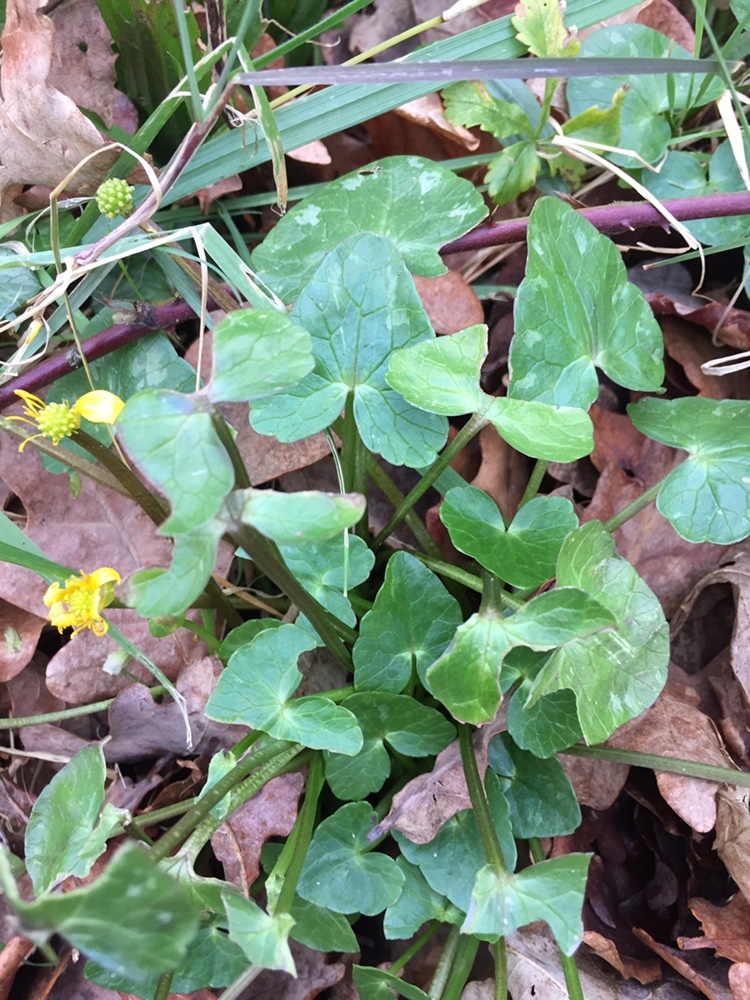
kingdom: Plantae
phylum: Tracheophyta
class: Magnoliopsida
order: Ranunculales
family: Ranunculaceae
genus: Ficaria
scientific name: Ficaria verna
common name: Lesser celandine
